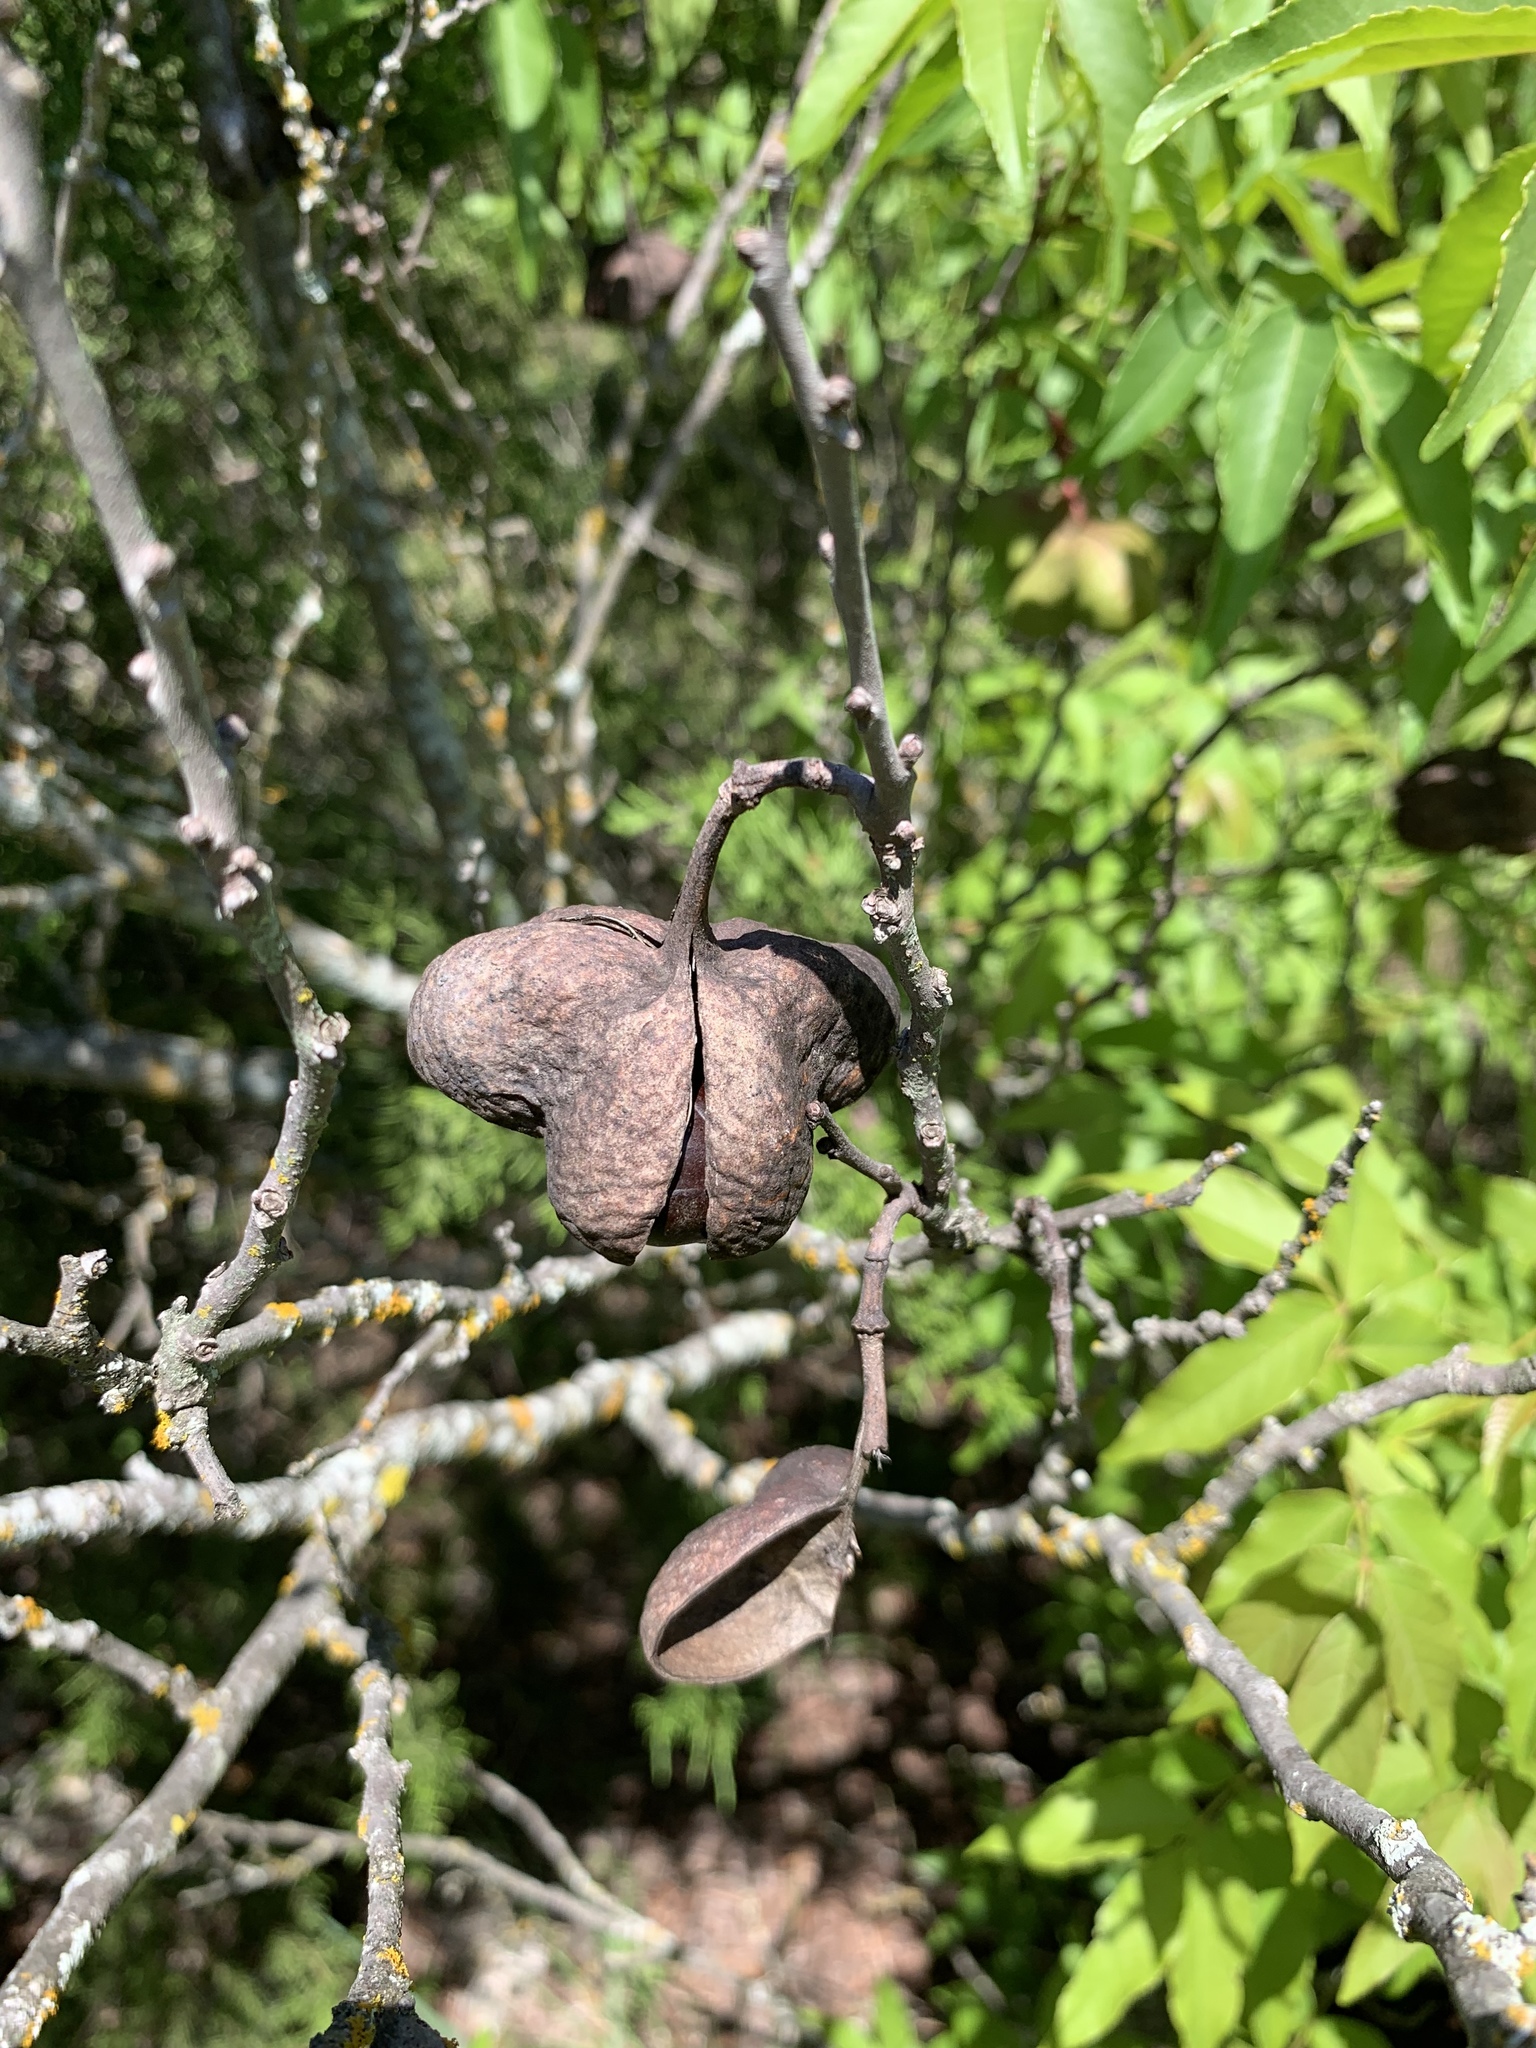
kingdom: Plantae
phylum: Tracheophyta
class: Magnoliopsida
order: Sapindales
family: Sapindaceae
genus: Ungnadia
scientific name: Ungnadia speciosa
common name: Texas-buckeye
